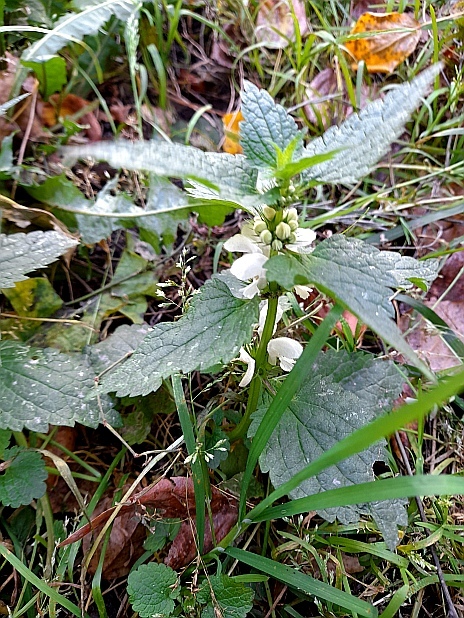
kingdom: Plantae
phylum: Tracheophyta
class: Magnoliopsida
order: Lamiales
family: Lamiaceae
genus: Lamium
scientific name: Lamium album
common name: White dead-nettle
